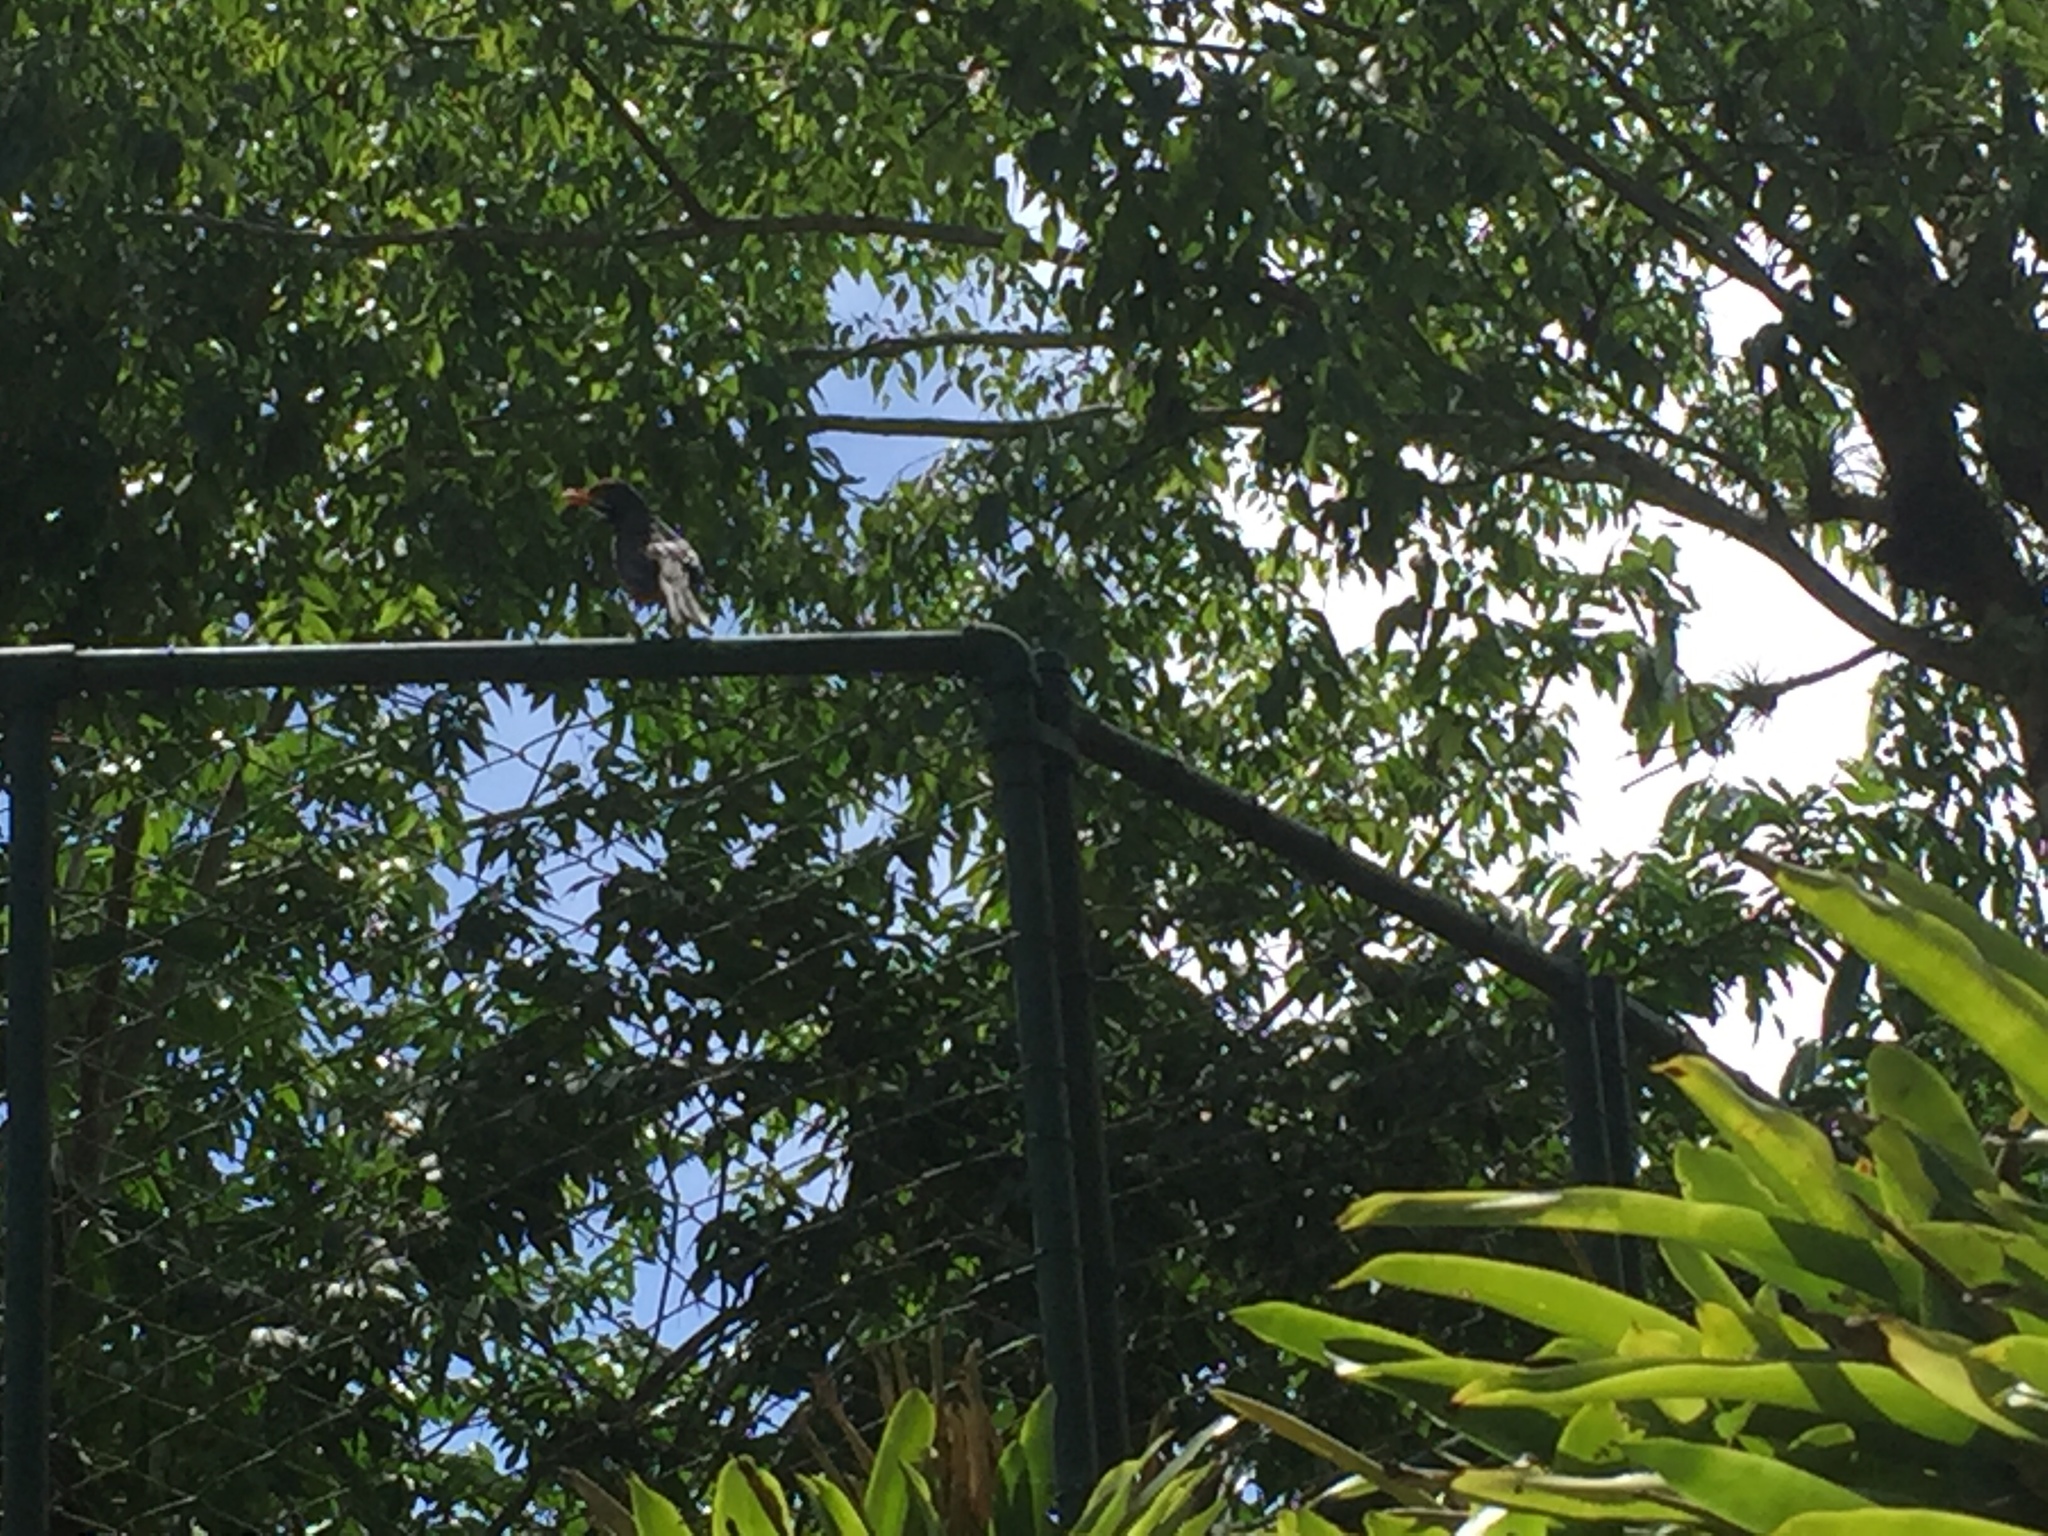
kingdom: Animalia
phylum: Chordata
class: Aves
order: Passeriformes
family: Turdidae
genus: Turdus
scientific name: Turdus plumbeus
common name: Red-legged thrush
